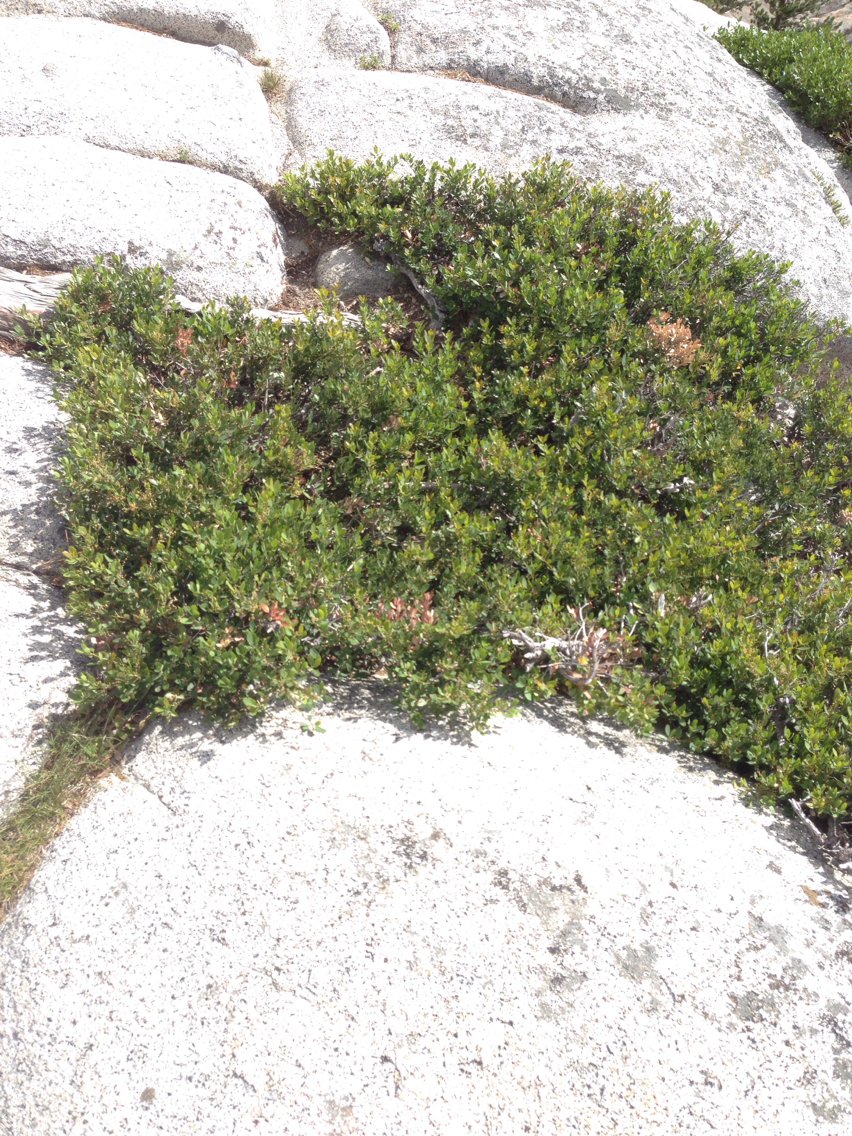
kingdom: Plantae
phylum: Tracheophyta
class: Magnoliopsida
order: Ericales
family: Ericaceae
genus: Arctostaphylos
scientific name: Arctostaphylos nevadensis
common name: Pinemat manzanita
